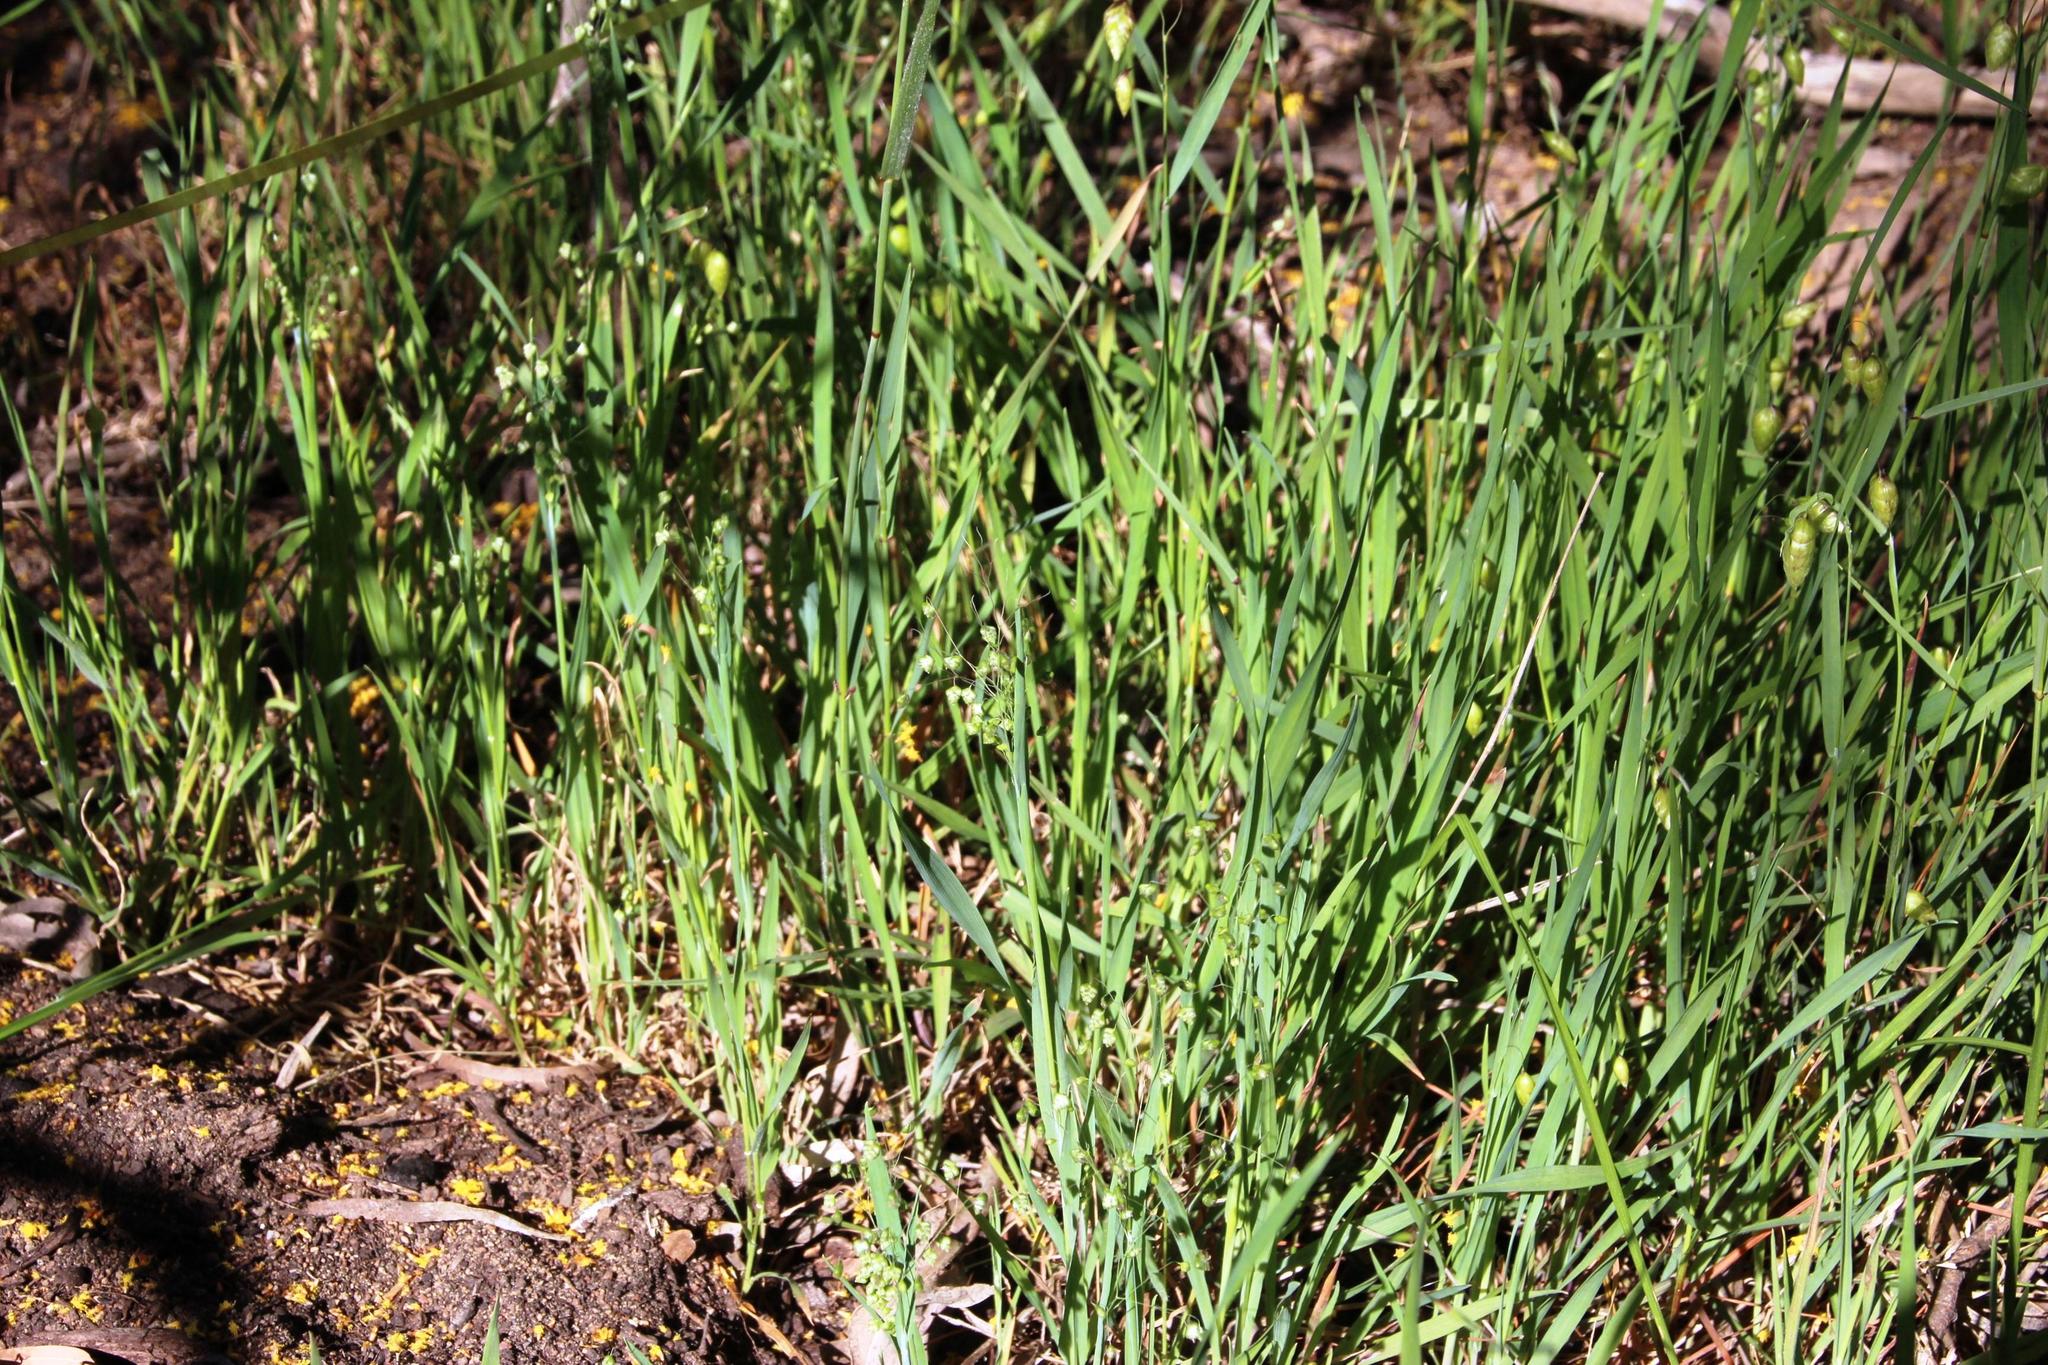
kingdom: Plantae
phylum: Tracheophyta
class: Liliopsida
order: Poales
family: Poaceae
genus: Briza
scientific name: Briza maxima
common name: Big quakinggrass
